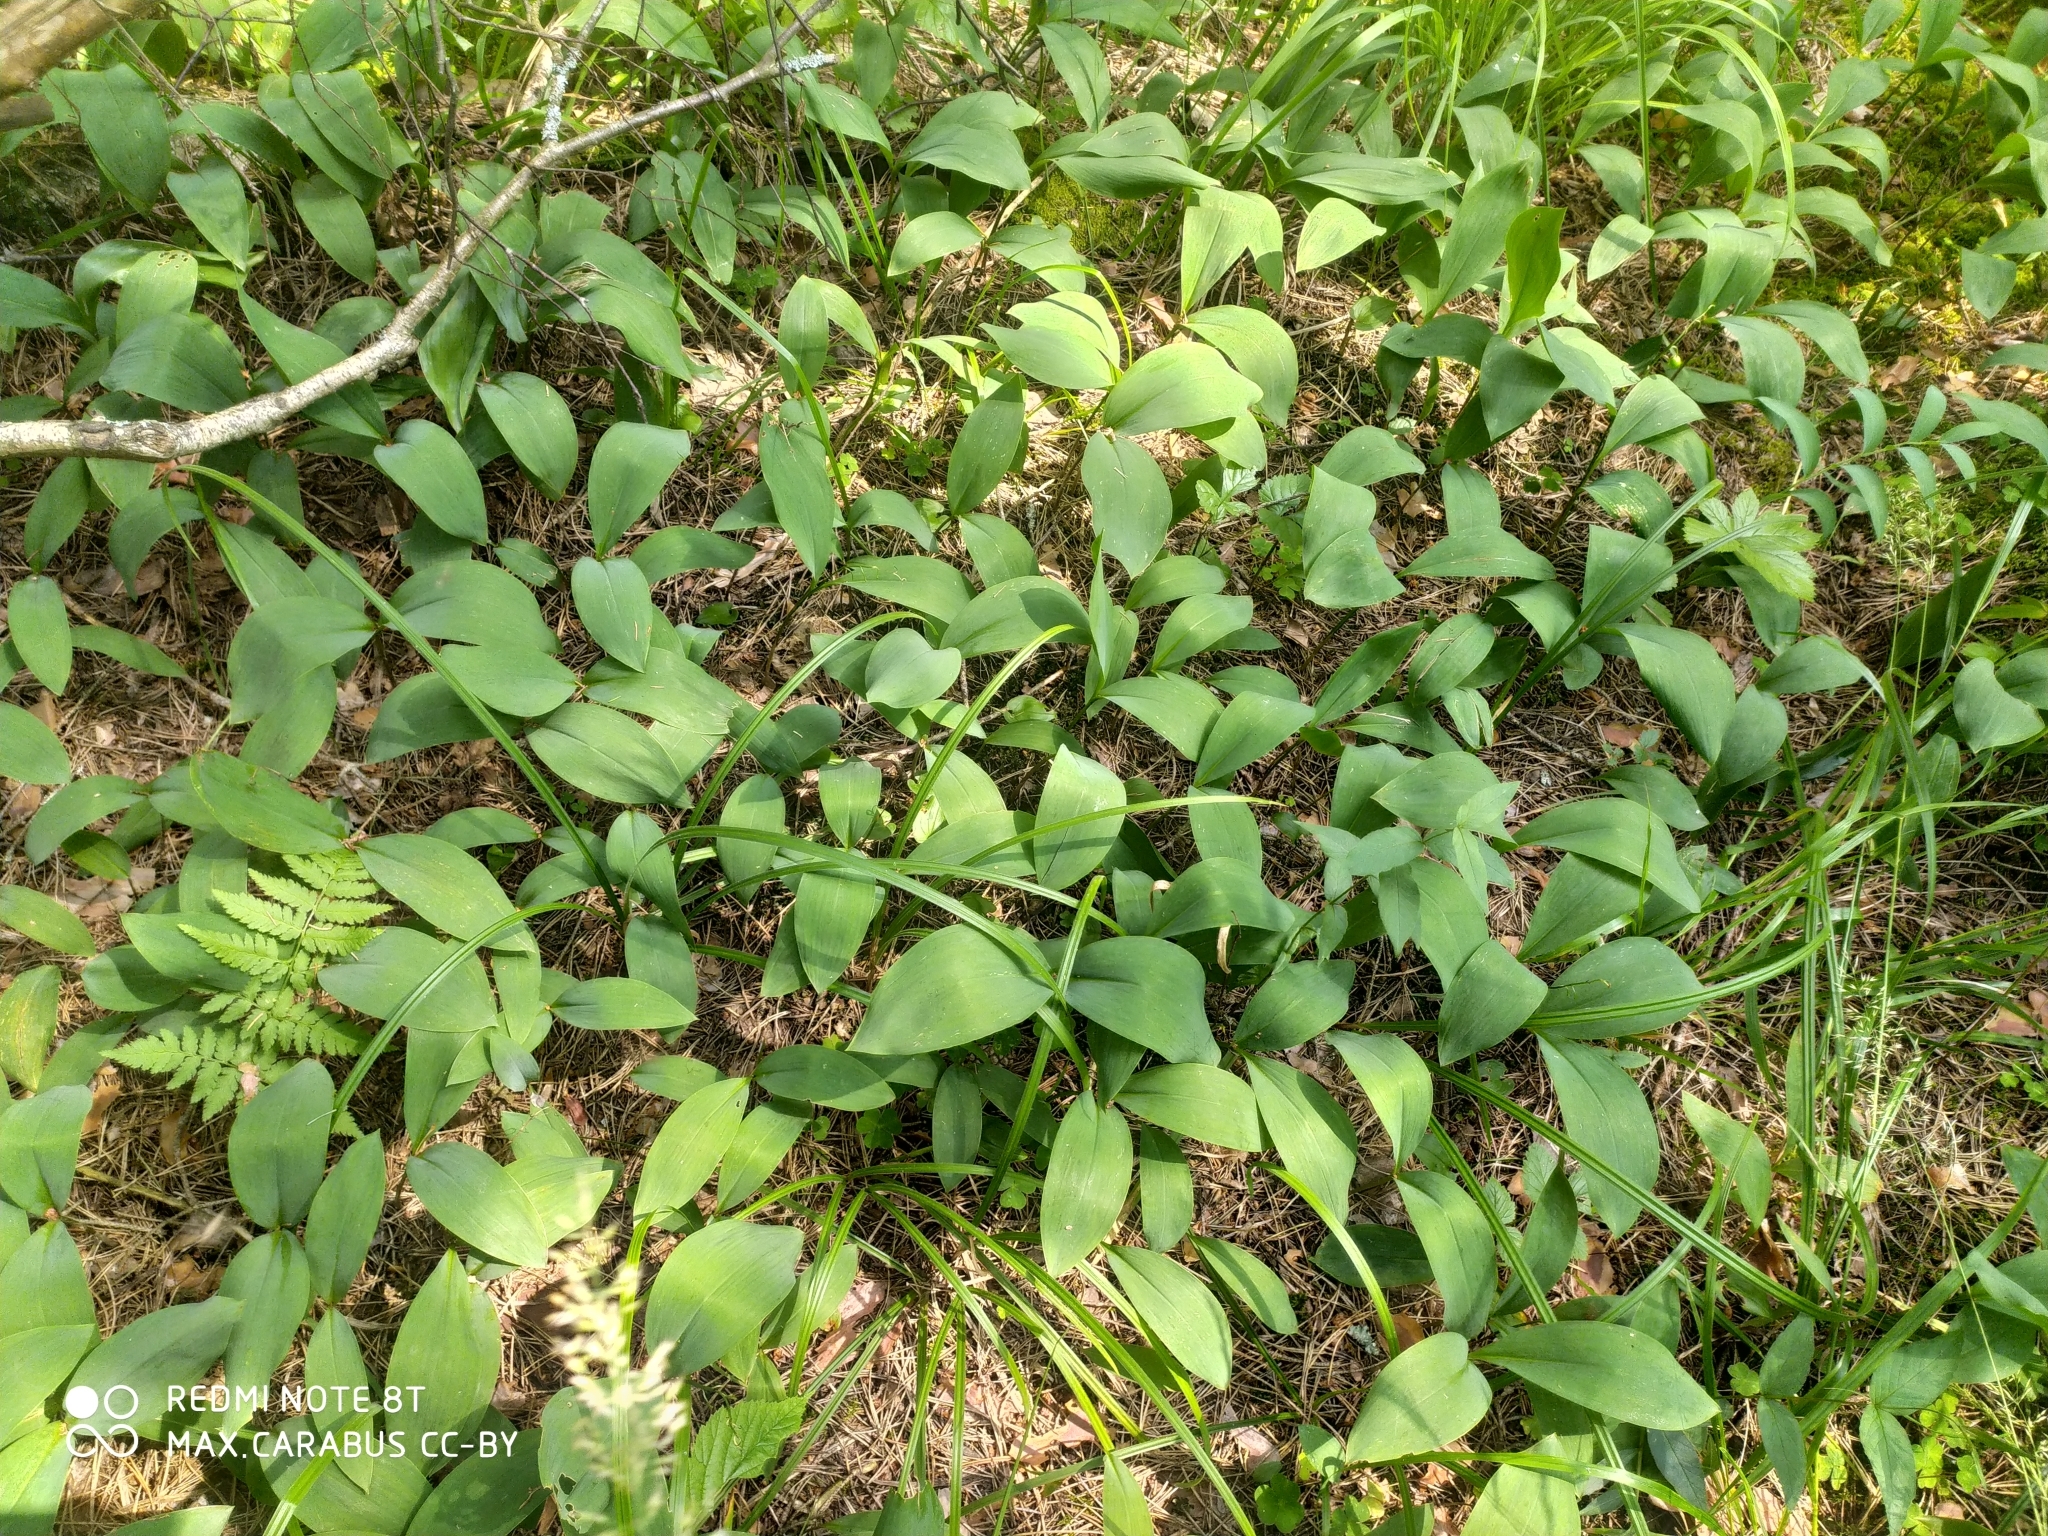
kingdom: Plantae
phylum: Tracheophyta
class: Liliopsida
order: Asparagales
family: Asparagaceae
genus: Convallaria
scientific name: Convallaria majalis
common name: Lily-of-the-valley
